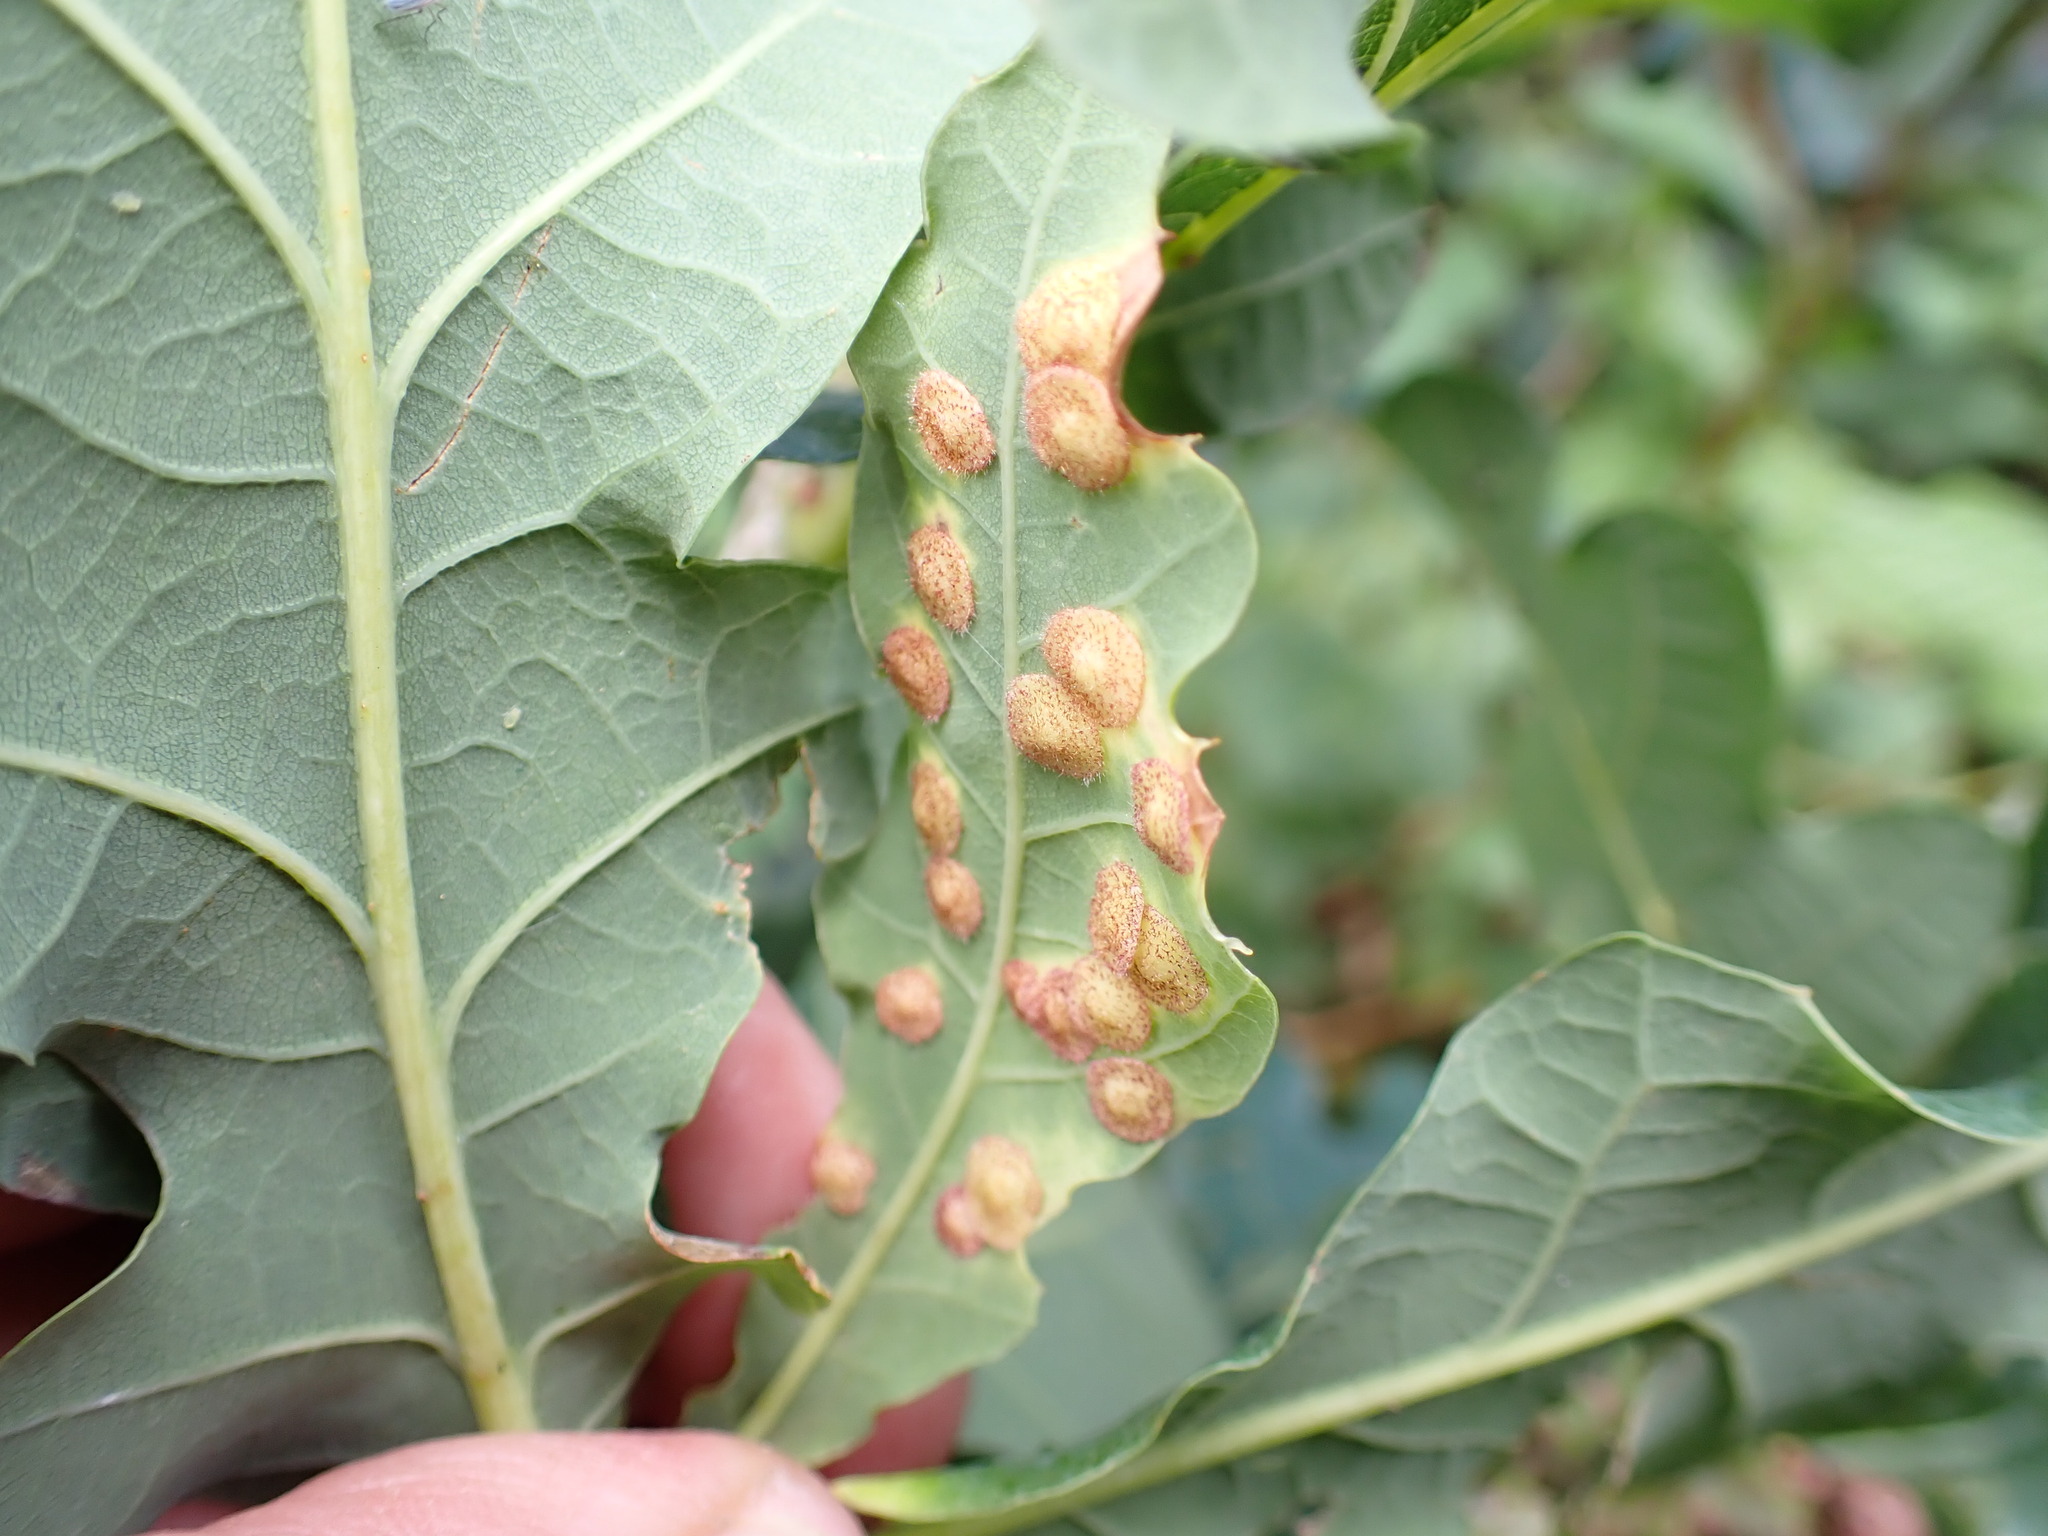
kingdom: Animalia
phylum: Arthropoda
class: Insecta
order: Hymenoptera
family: Cynipidae
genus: Neuroterus
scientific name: Neuroterus quercusbaccarum
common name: Common spangle gall
